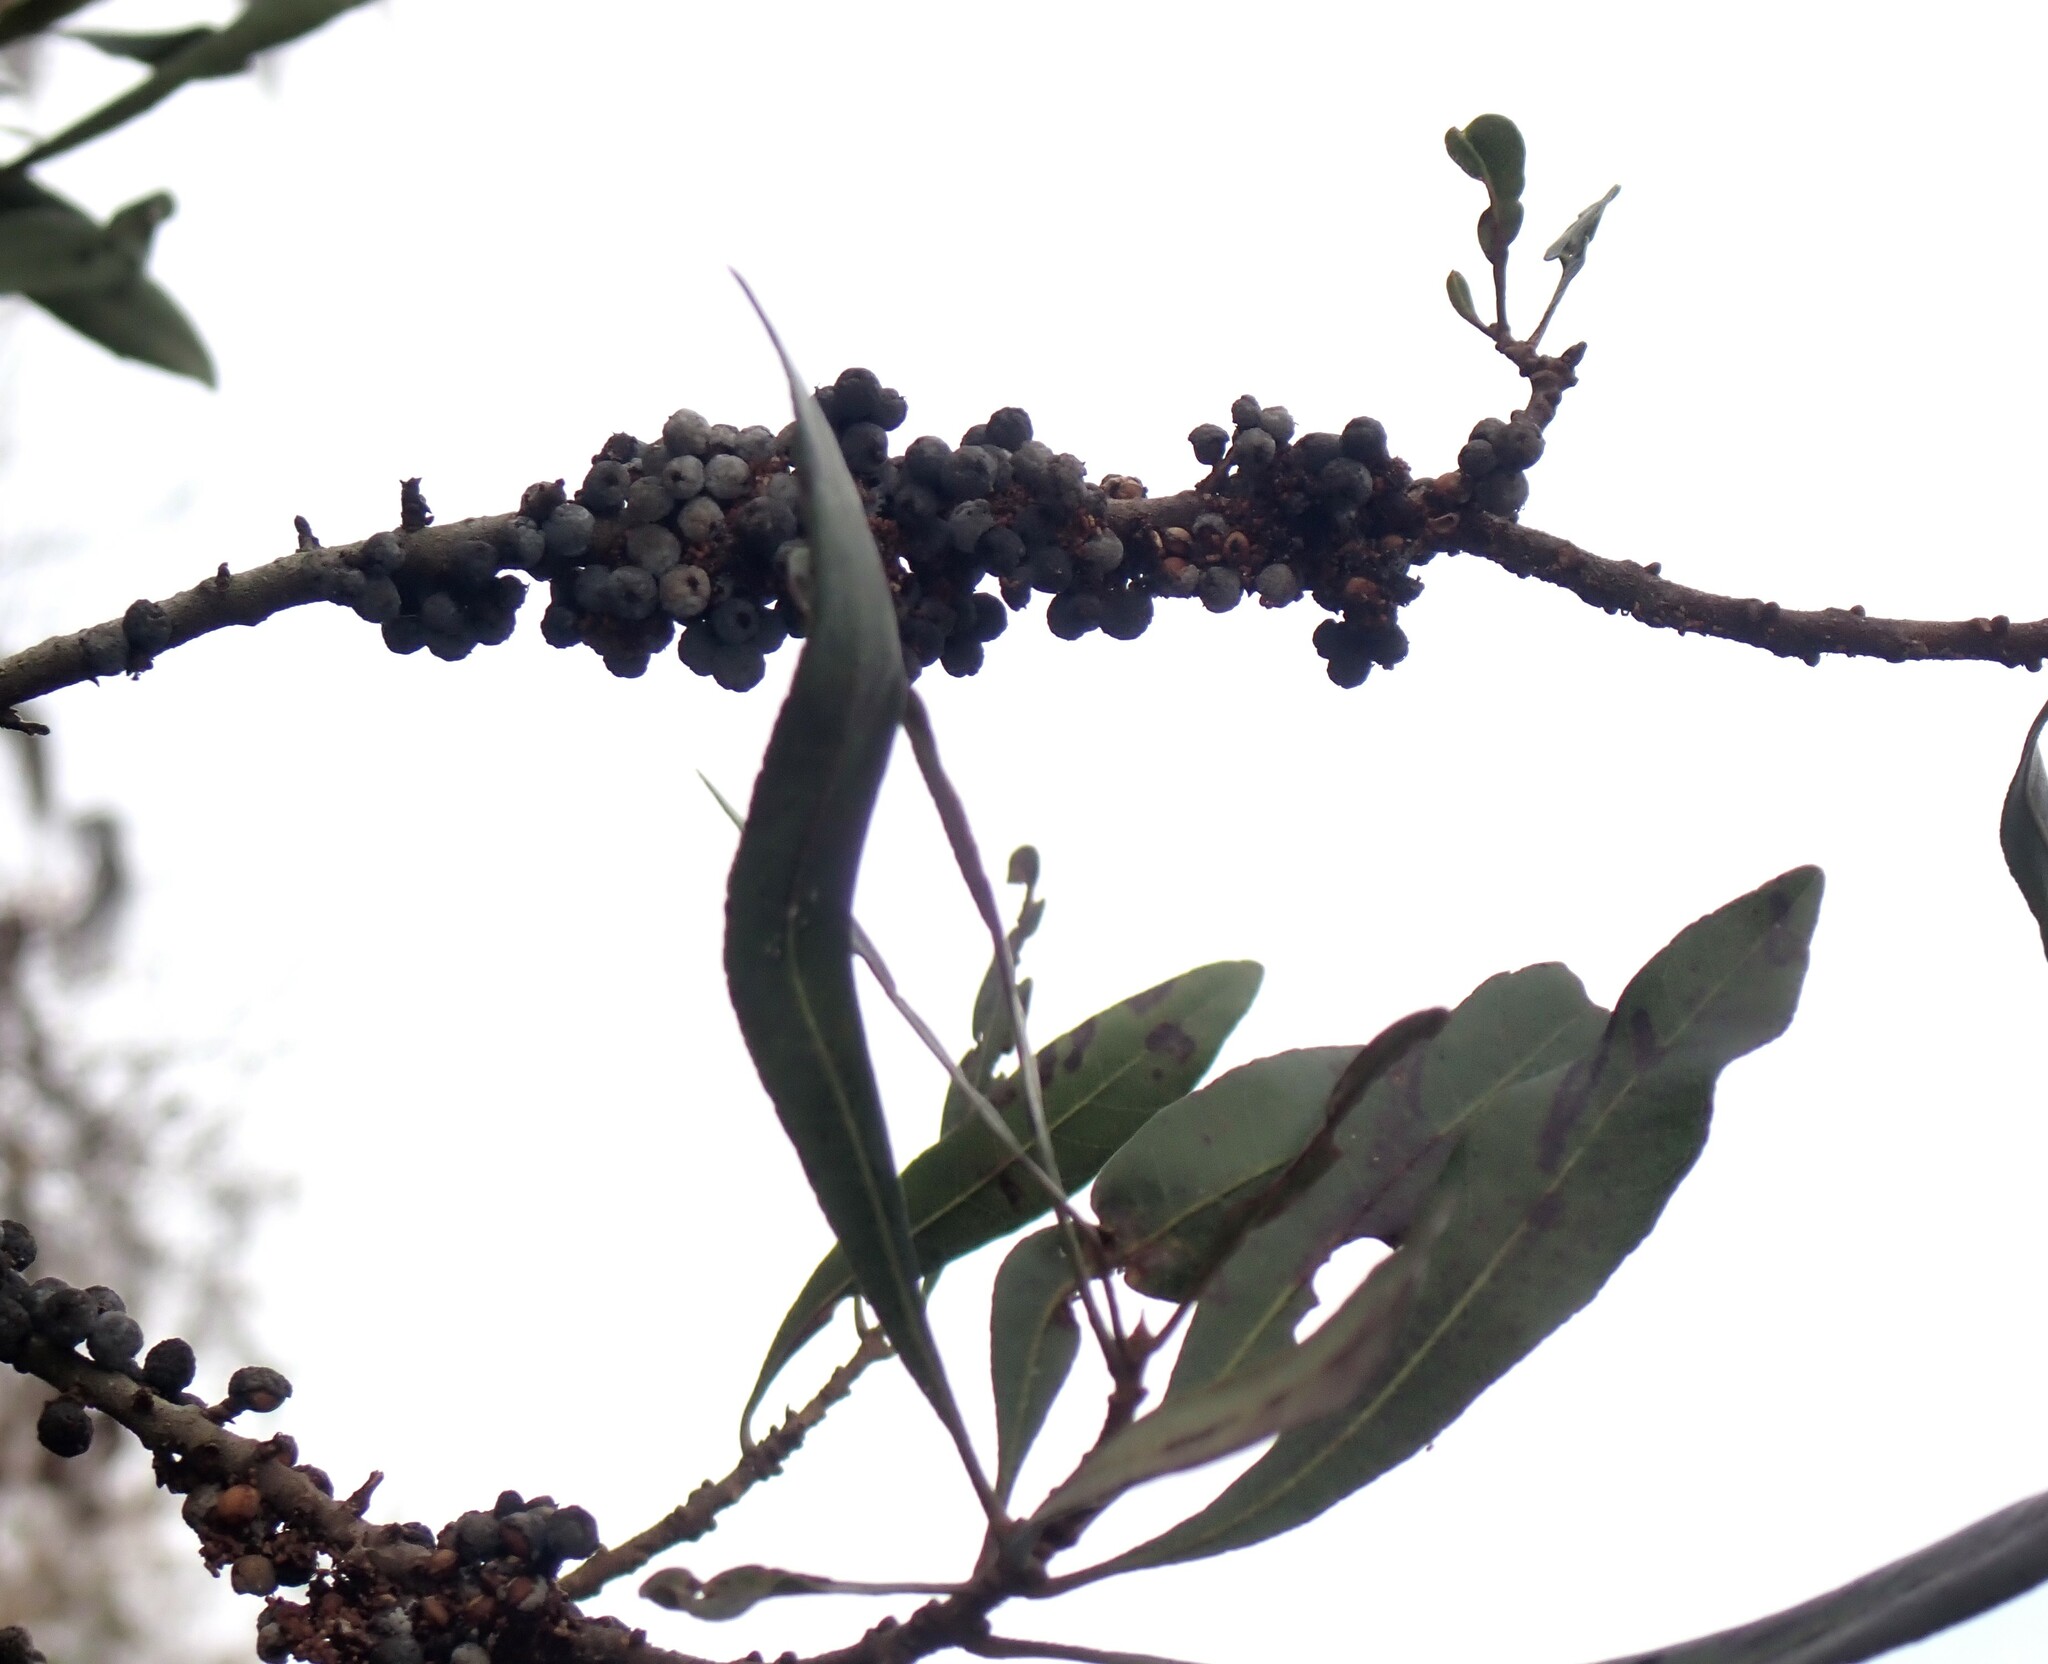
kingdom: Plantae
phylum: Tracheophyta
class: Magnoliopsida
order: Fagales
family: Myricaceae
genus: Morella
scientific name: Morella cerifera
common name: Wax myrtle
